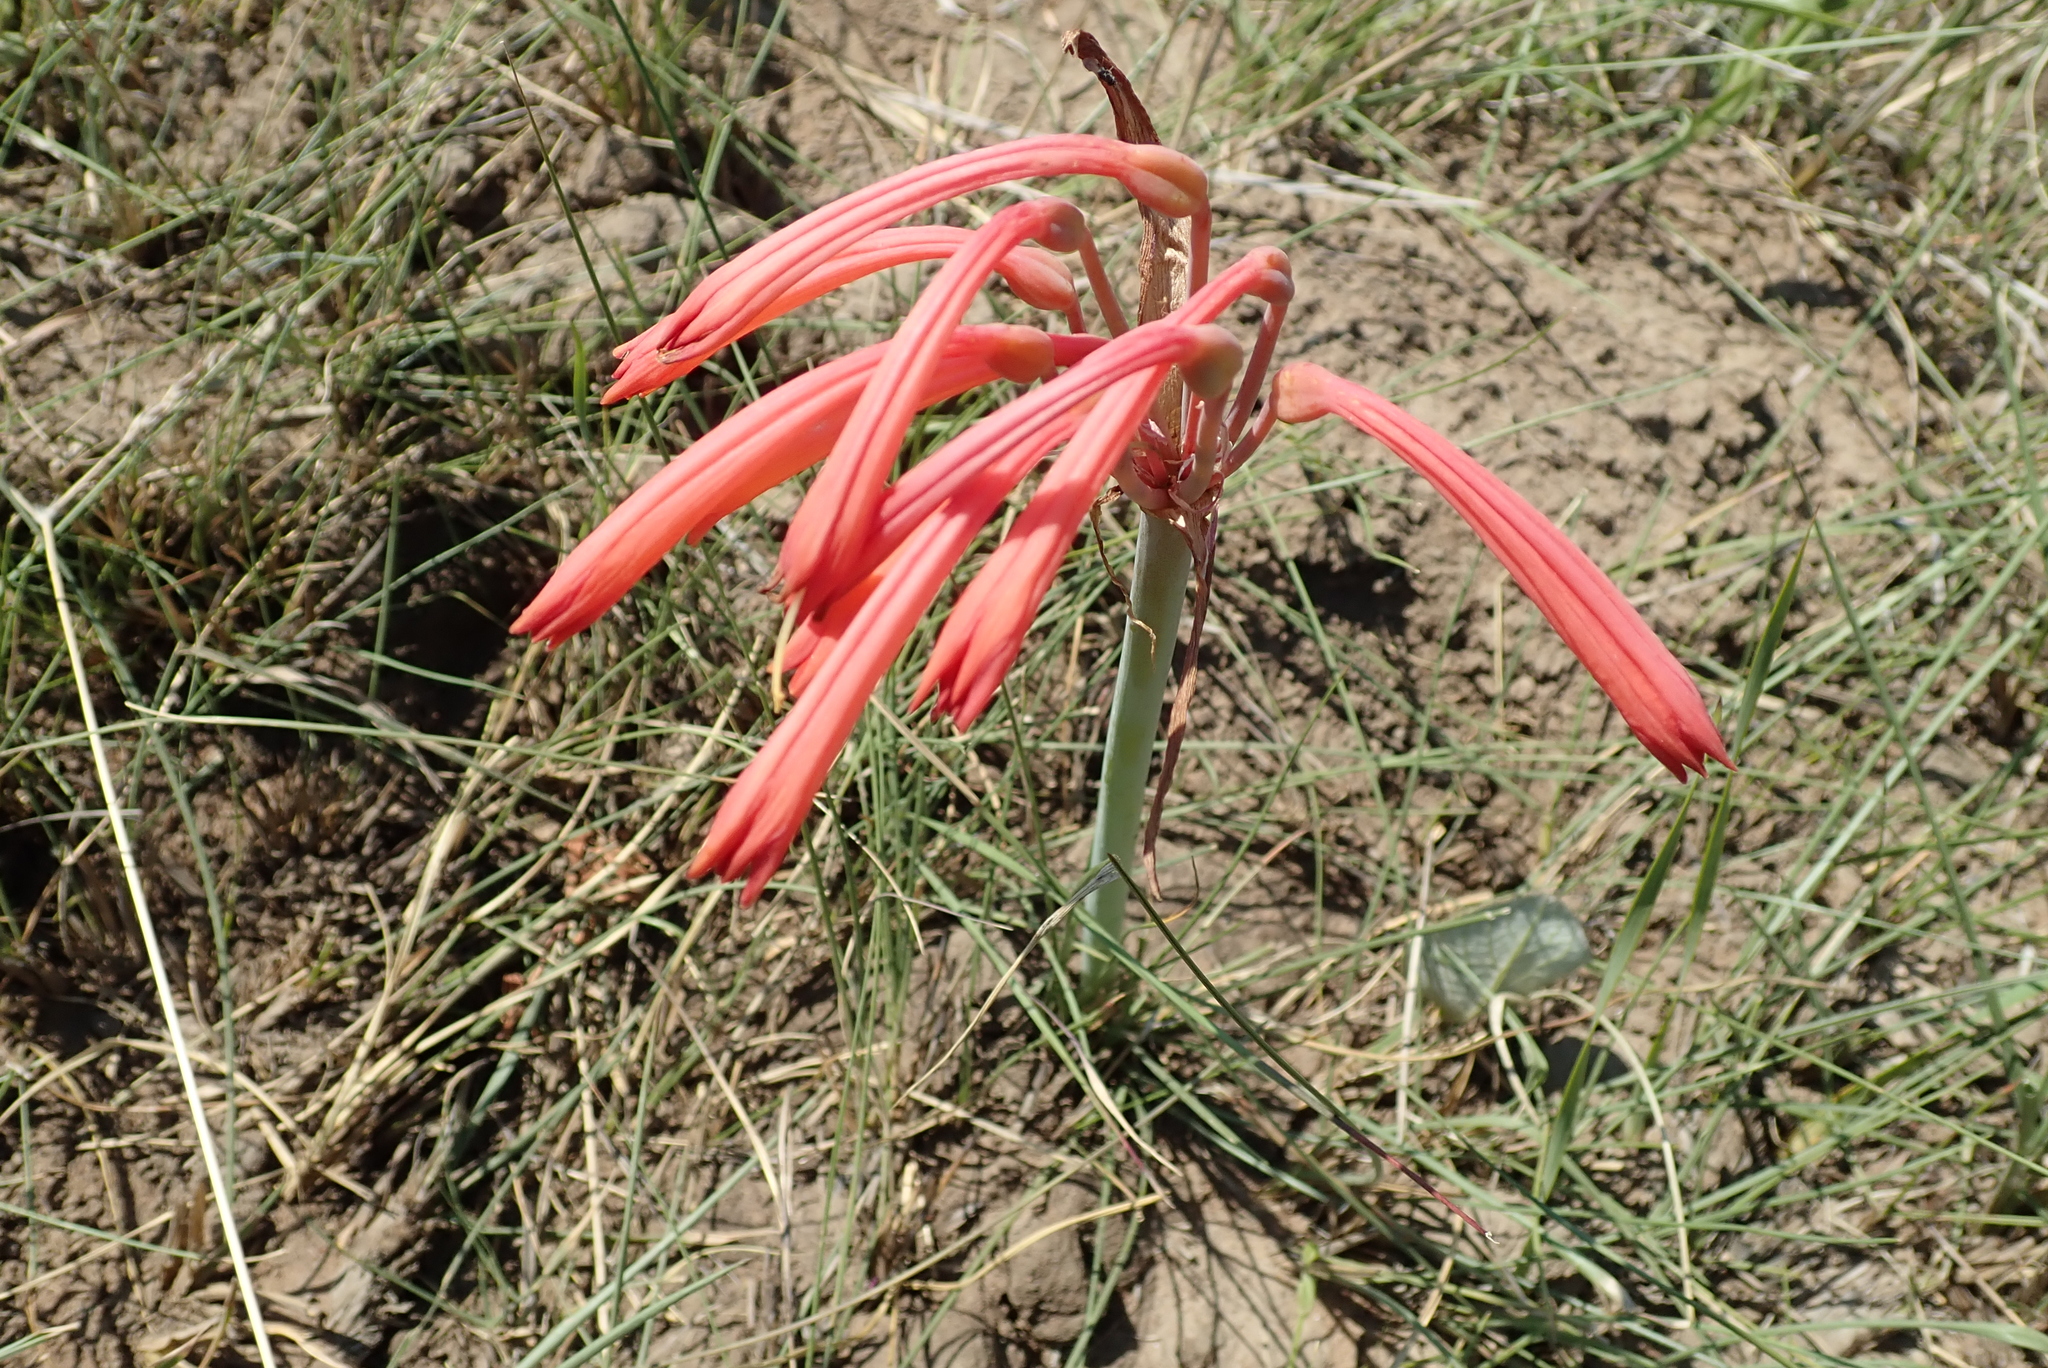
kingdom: Plantae
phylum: Tracheophyta
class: Liliopsida
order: Asparagales
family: Amaryllidaceae
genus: Cyrtanthus
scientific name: Cyrtanthus tuckii
